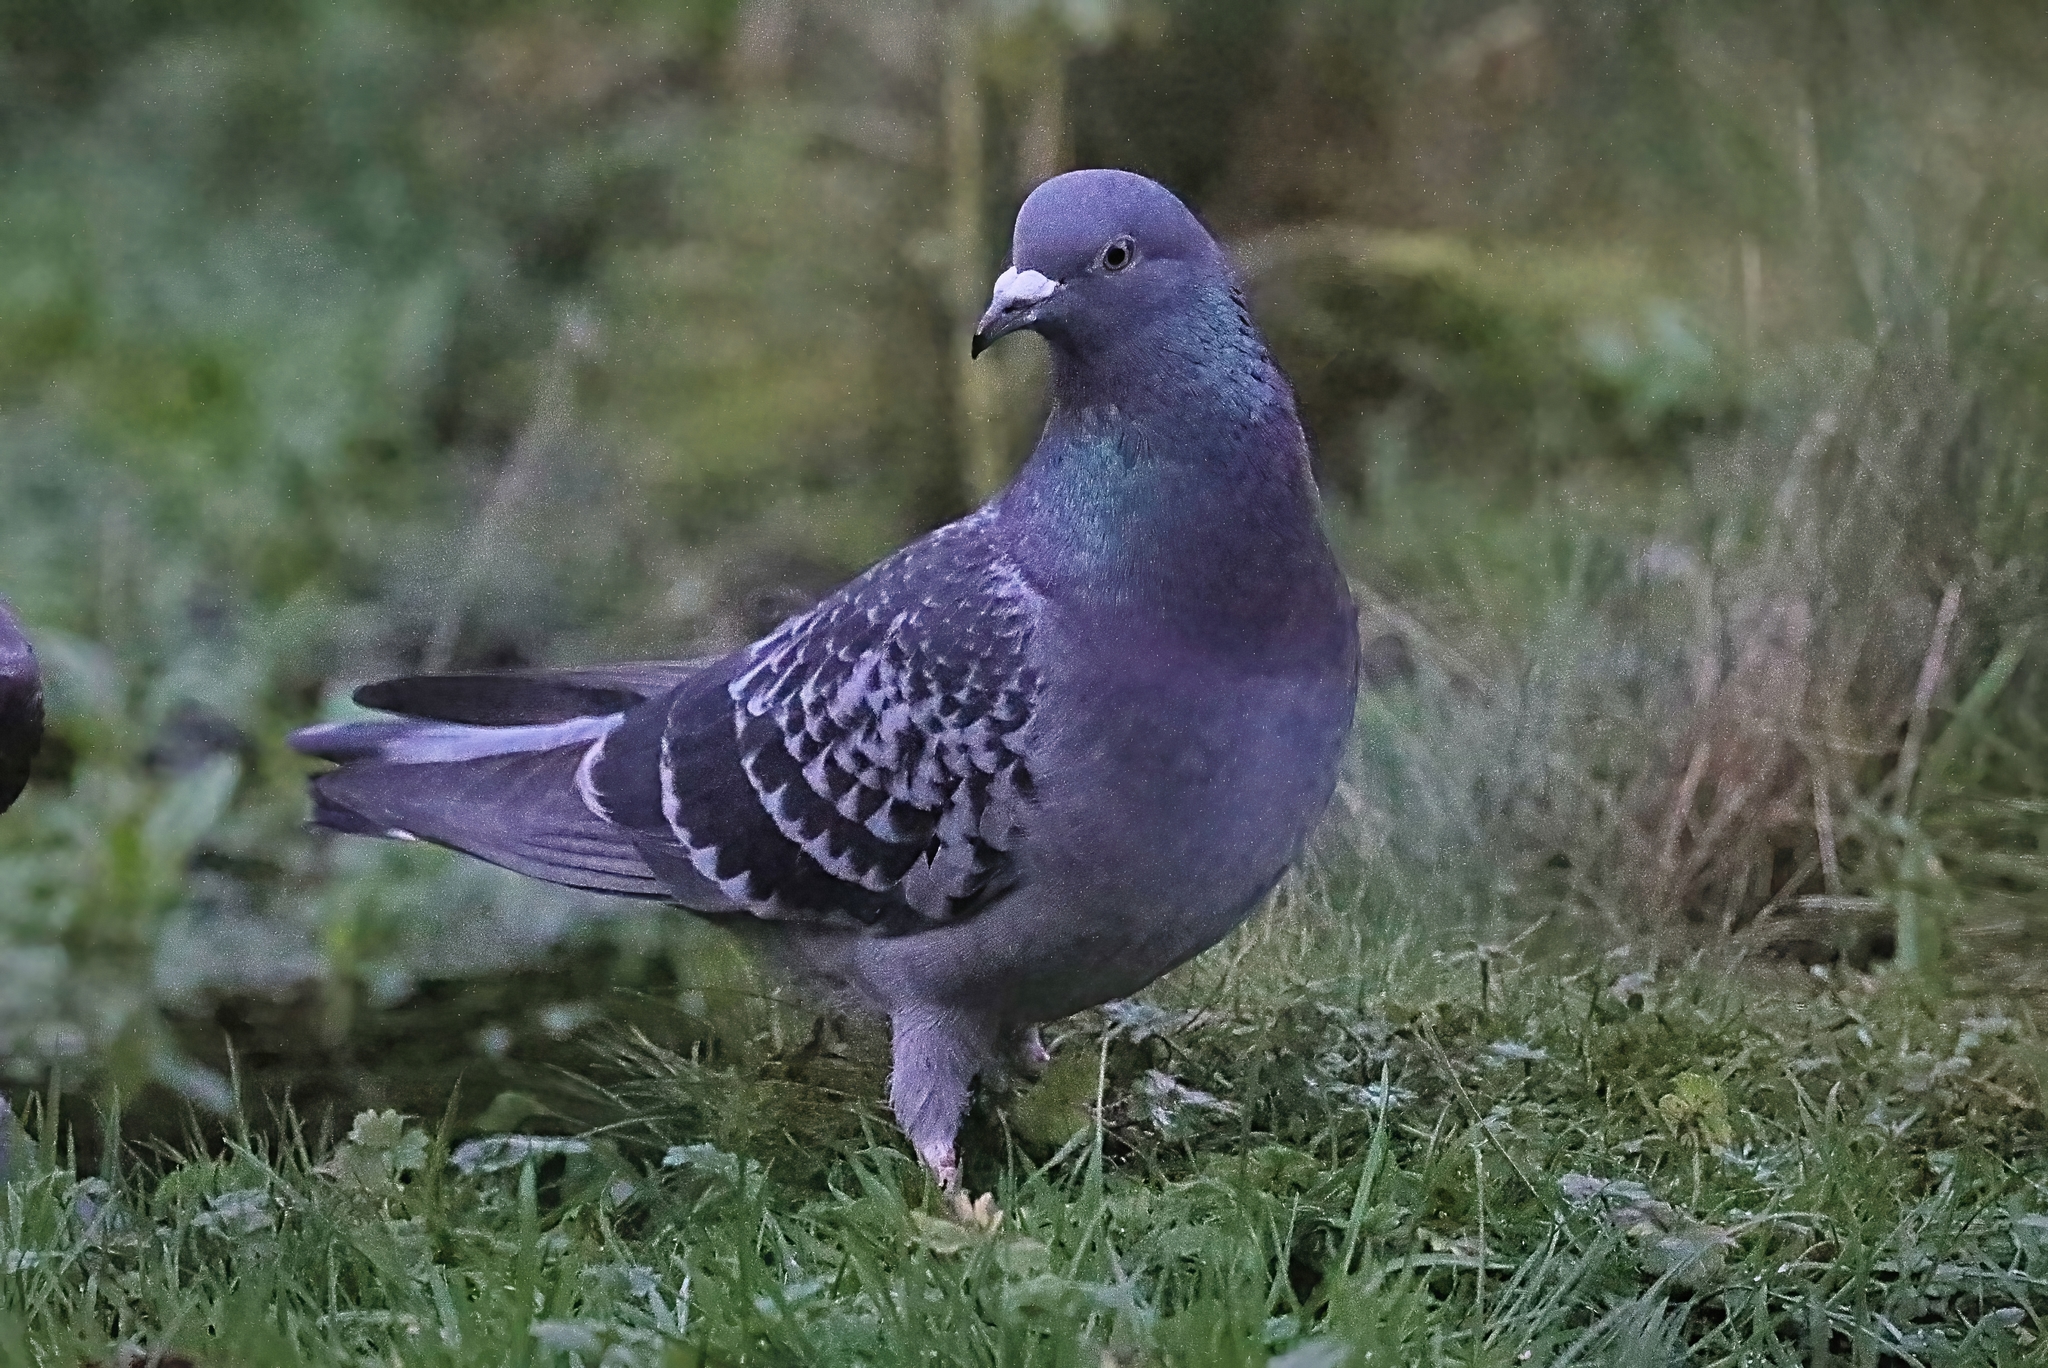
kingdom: Animalia
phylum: Chordata
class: Aves
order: Columbiformes
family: Columbidae
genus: Columba
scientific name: Columba livia
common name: Rock pigeon
